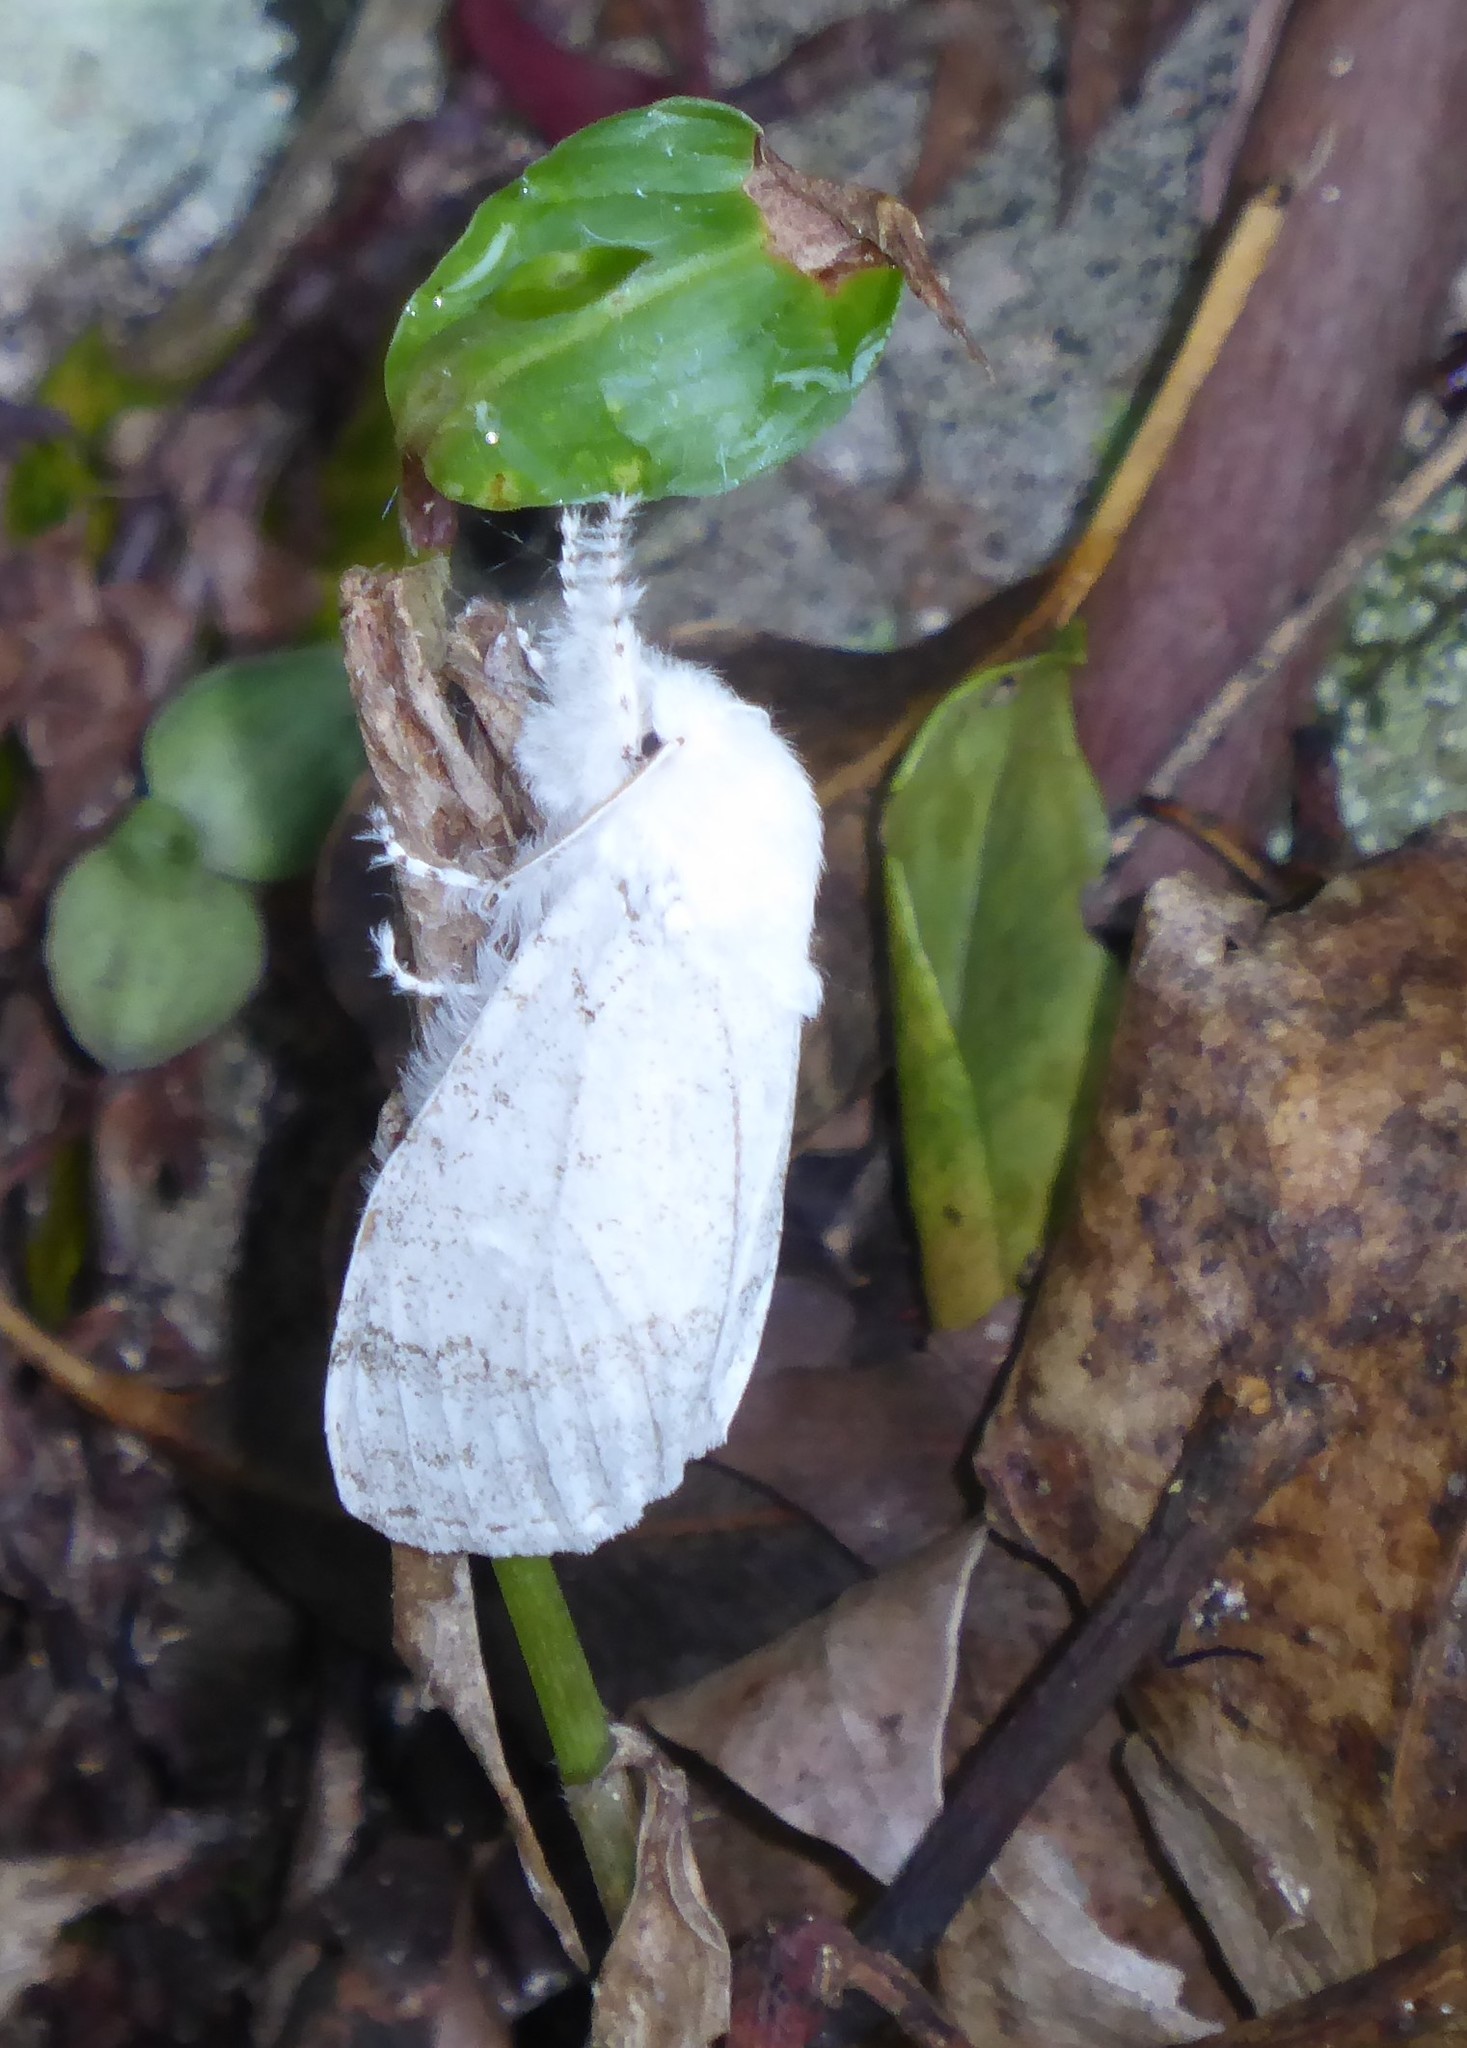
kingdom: Animalia
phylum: Arthropoda
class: Insecta
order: Lepidoptera
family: Erebidae
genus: Calliteara
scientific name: Calliteara pura
